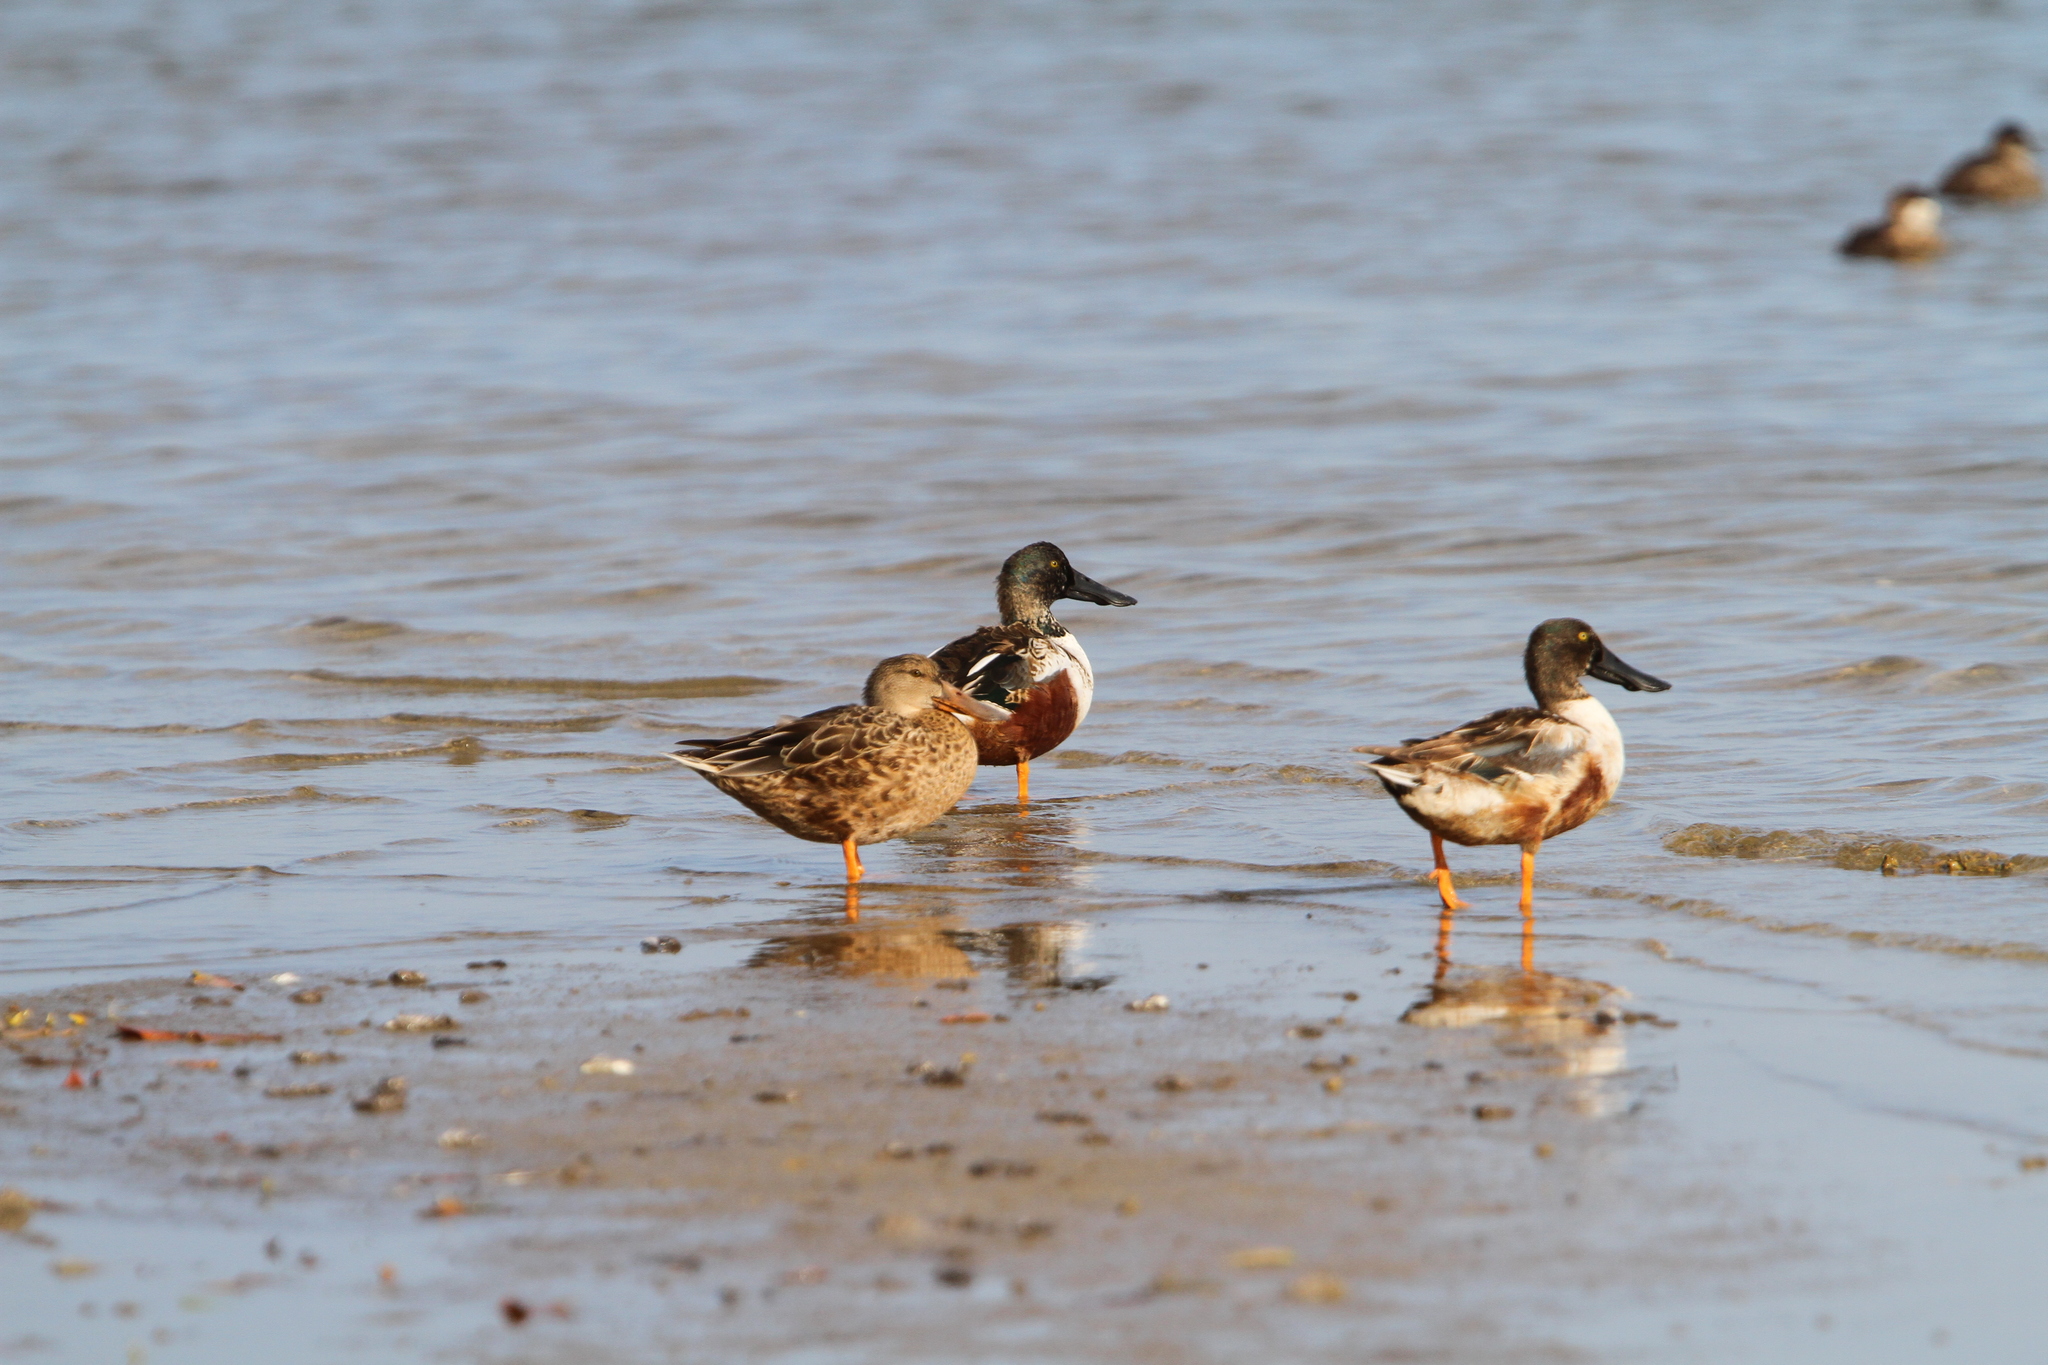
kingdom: Animalia
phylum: Chordata
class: Aves
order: Anseriformes
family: Anatidae
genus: Spatula
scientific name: Spatula clypeata
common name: Northern shoveler
